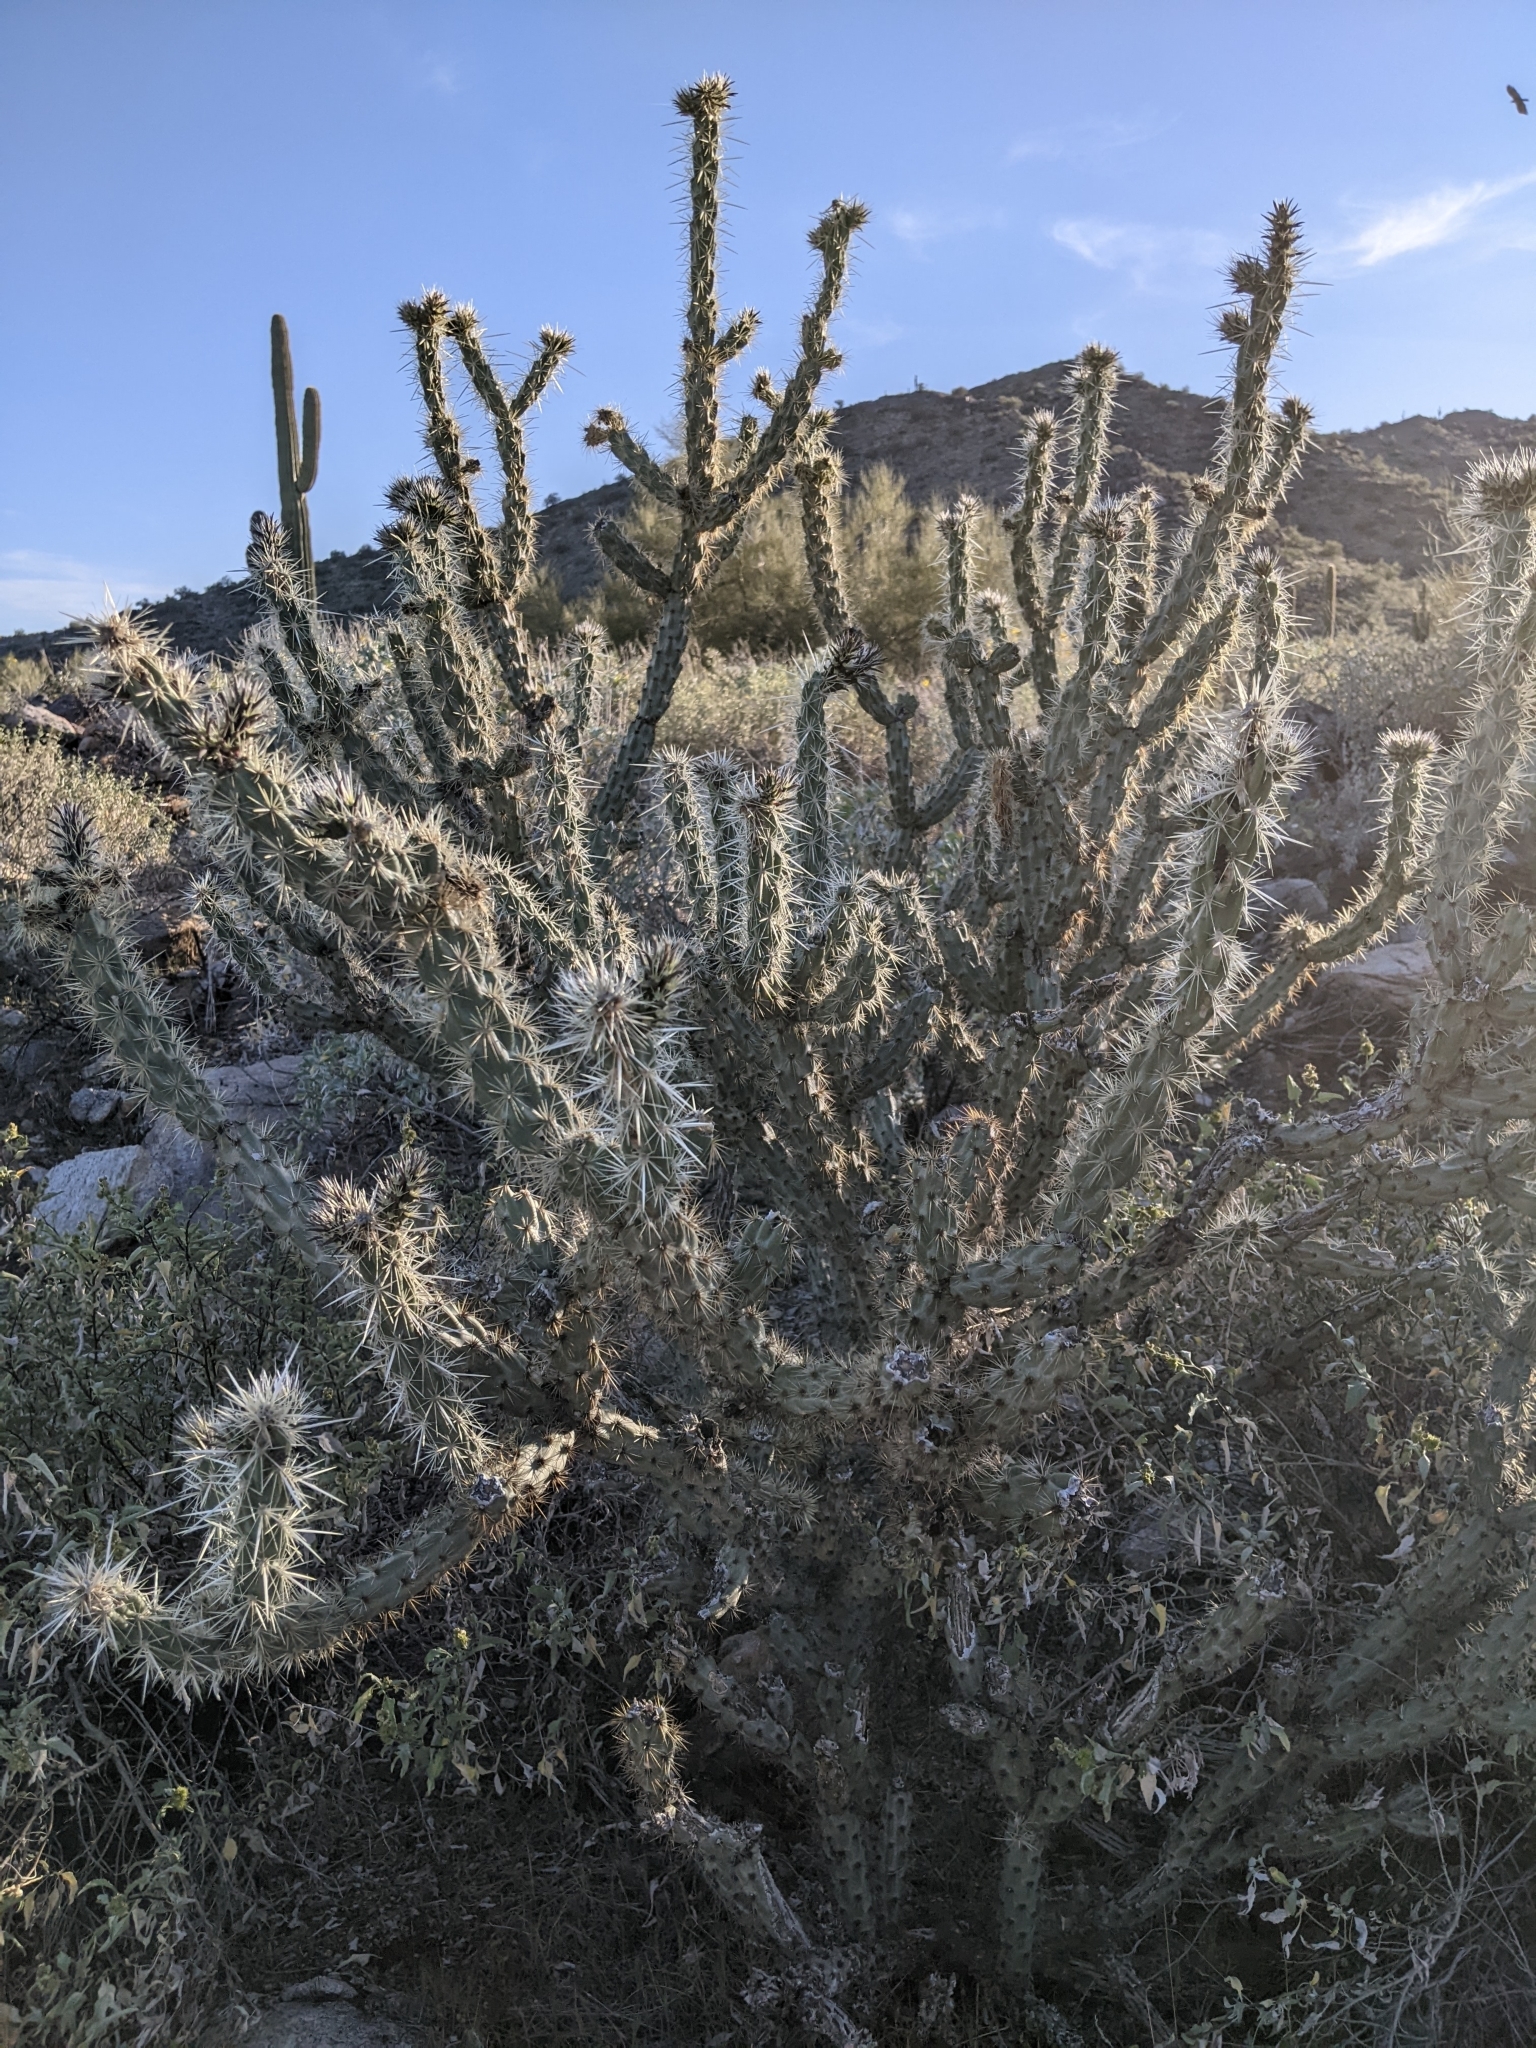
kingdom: Plantae
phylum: Tracheophyta
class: Magnoliopsida
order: Caryophyllales
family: Cactaceae
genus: Cylindropuntia
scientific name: Cylindropuntia acanthocarpa
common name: Buckhorn cholla
